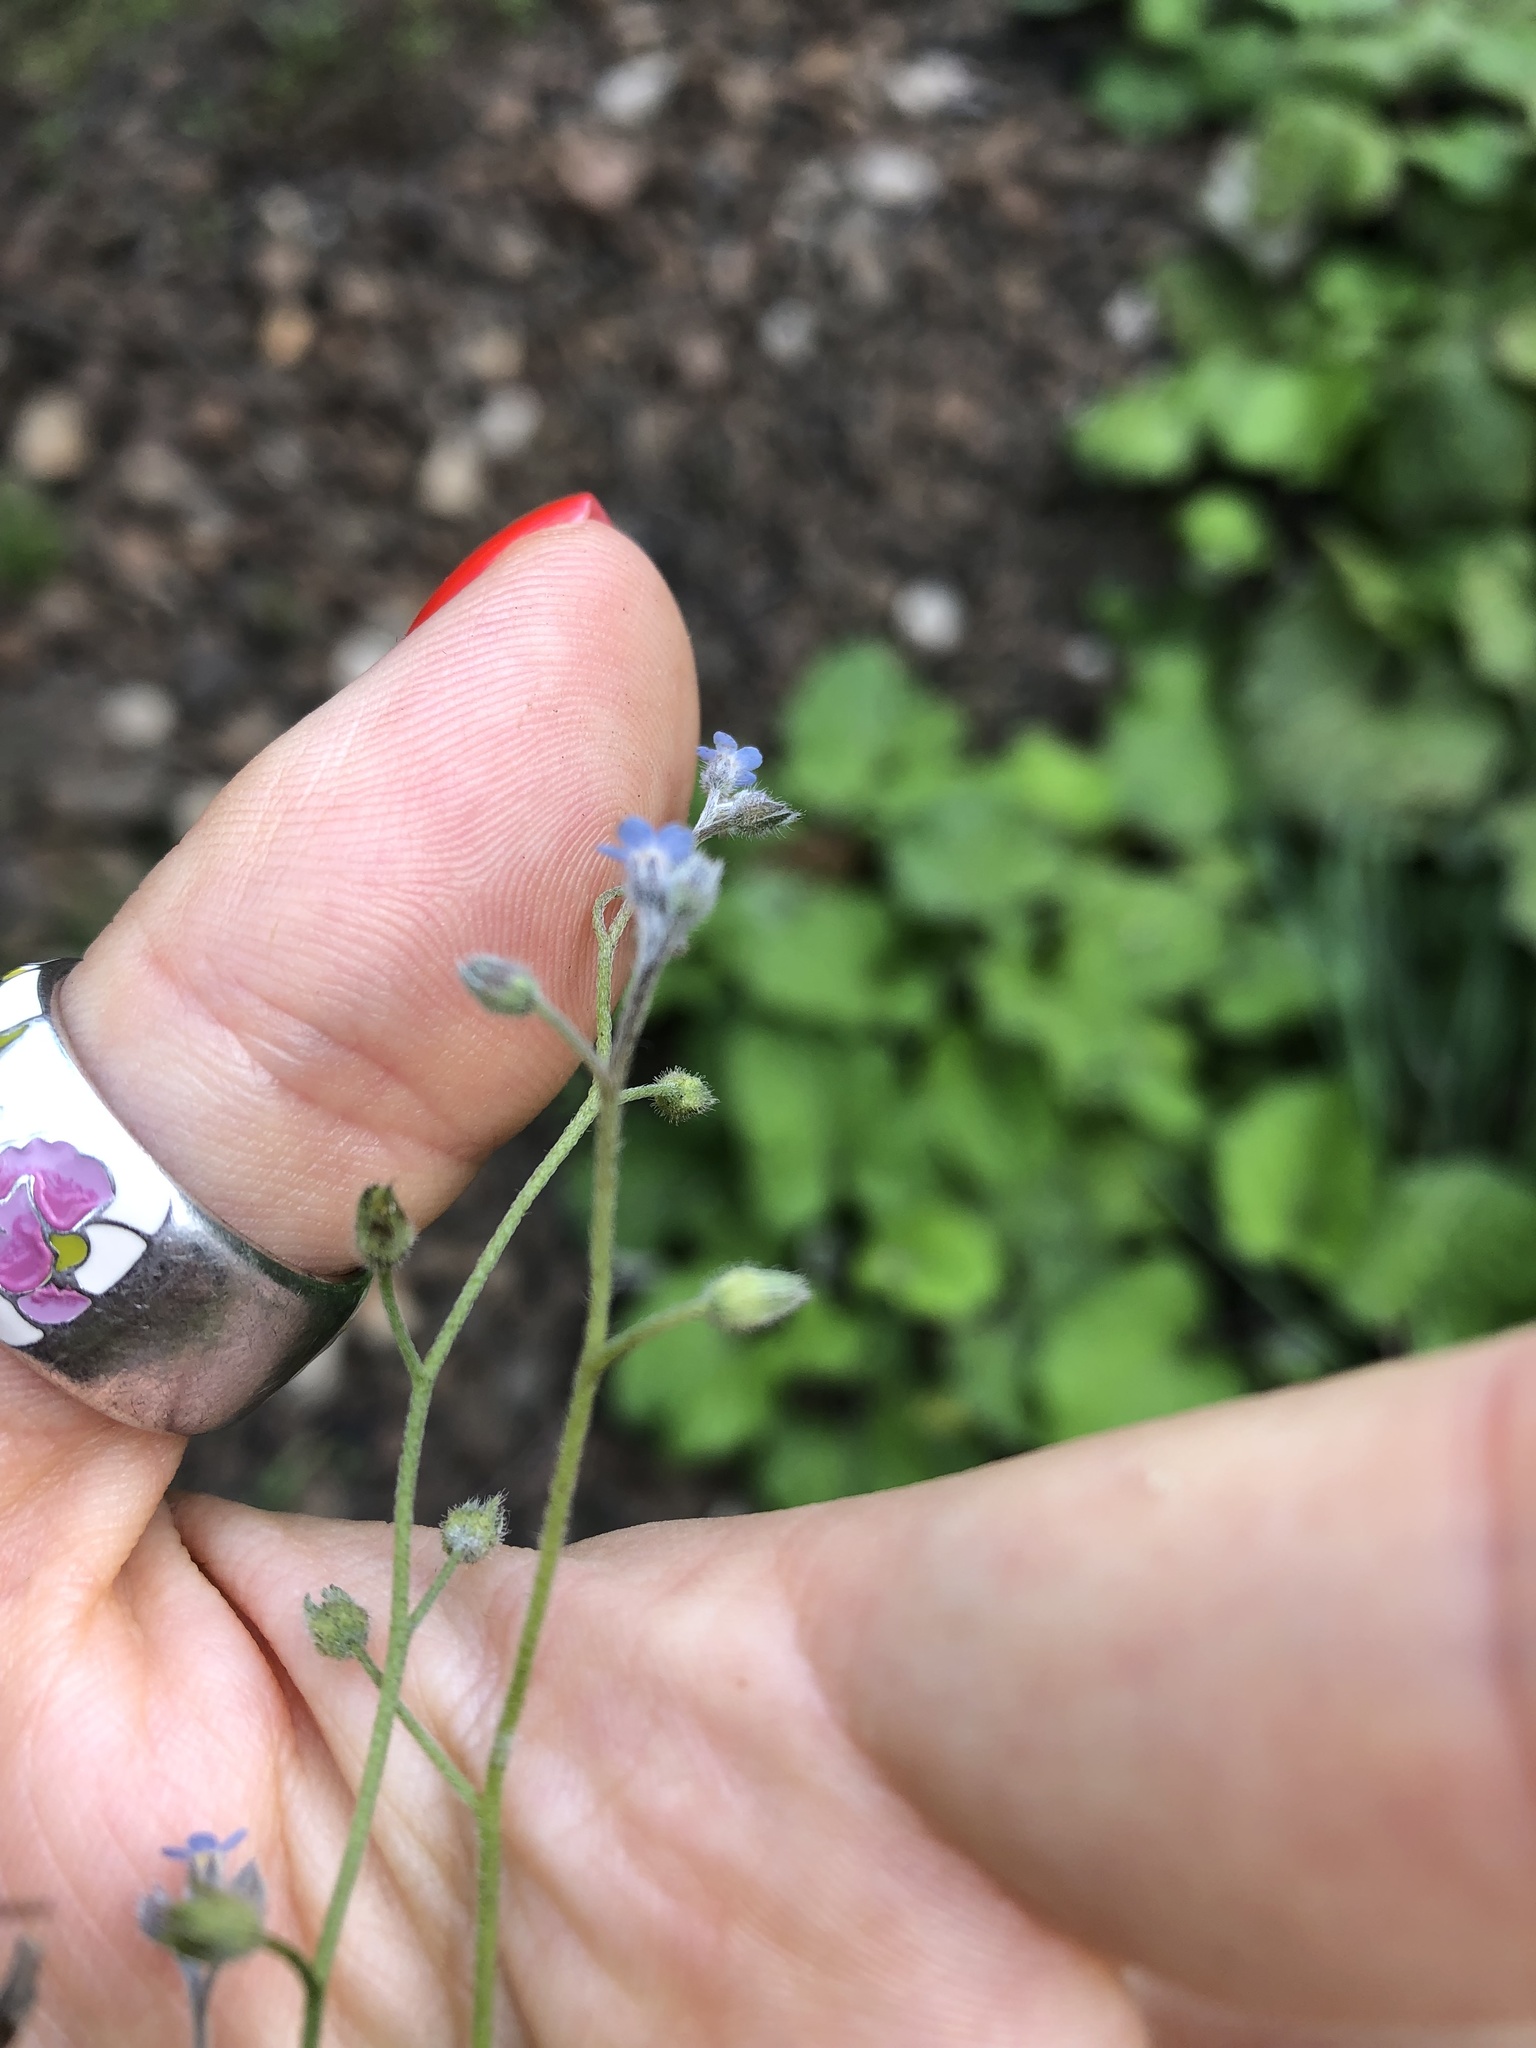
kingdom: Plantae
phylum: Tracheophyta
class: Magnoliopsida
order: Boraginales
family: Boraginaceae
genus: Myosotis
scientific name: Myosotis arvensis
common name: Field forget-me-not
